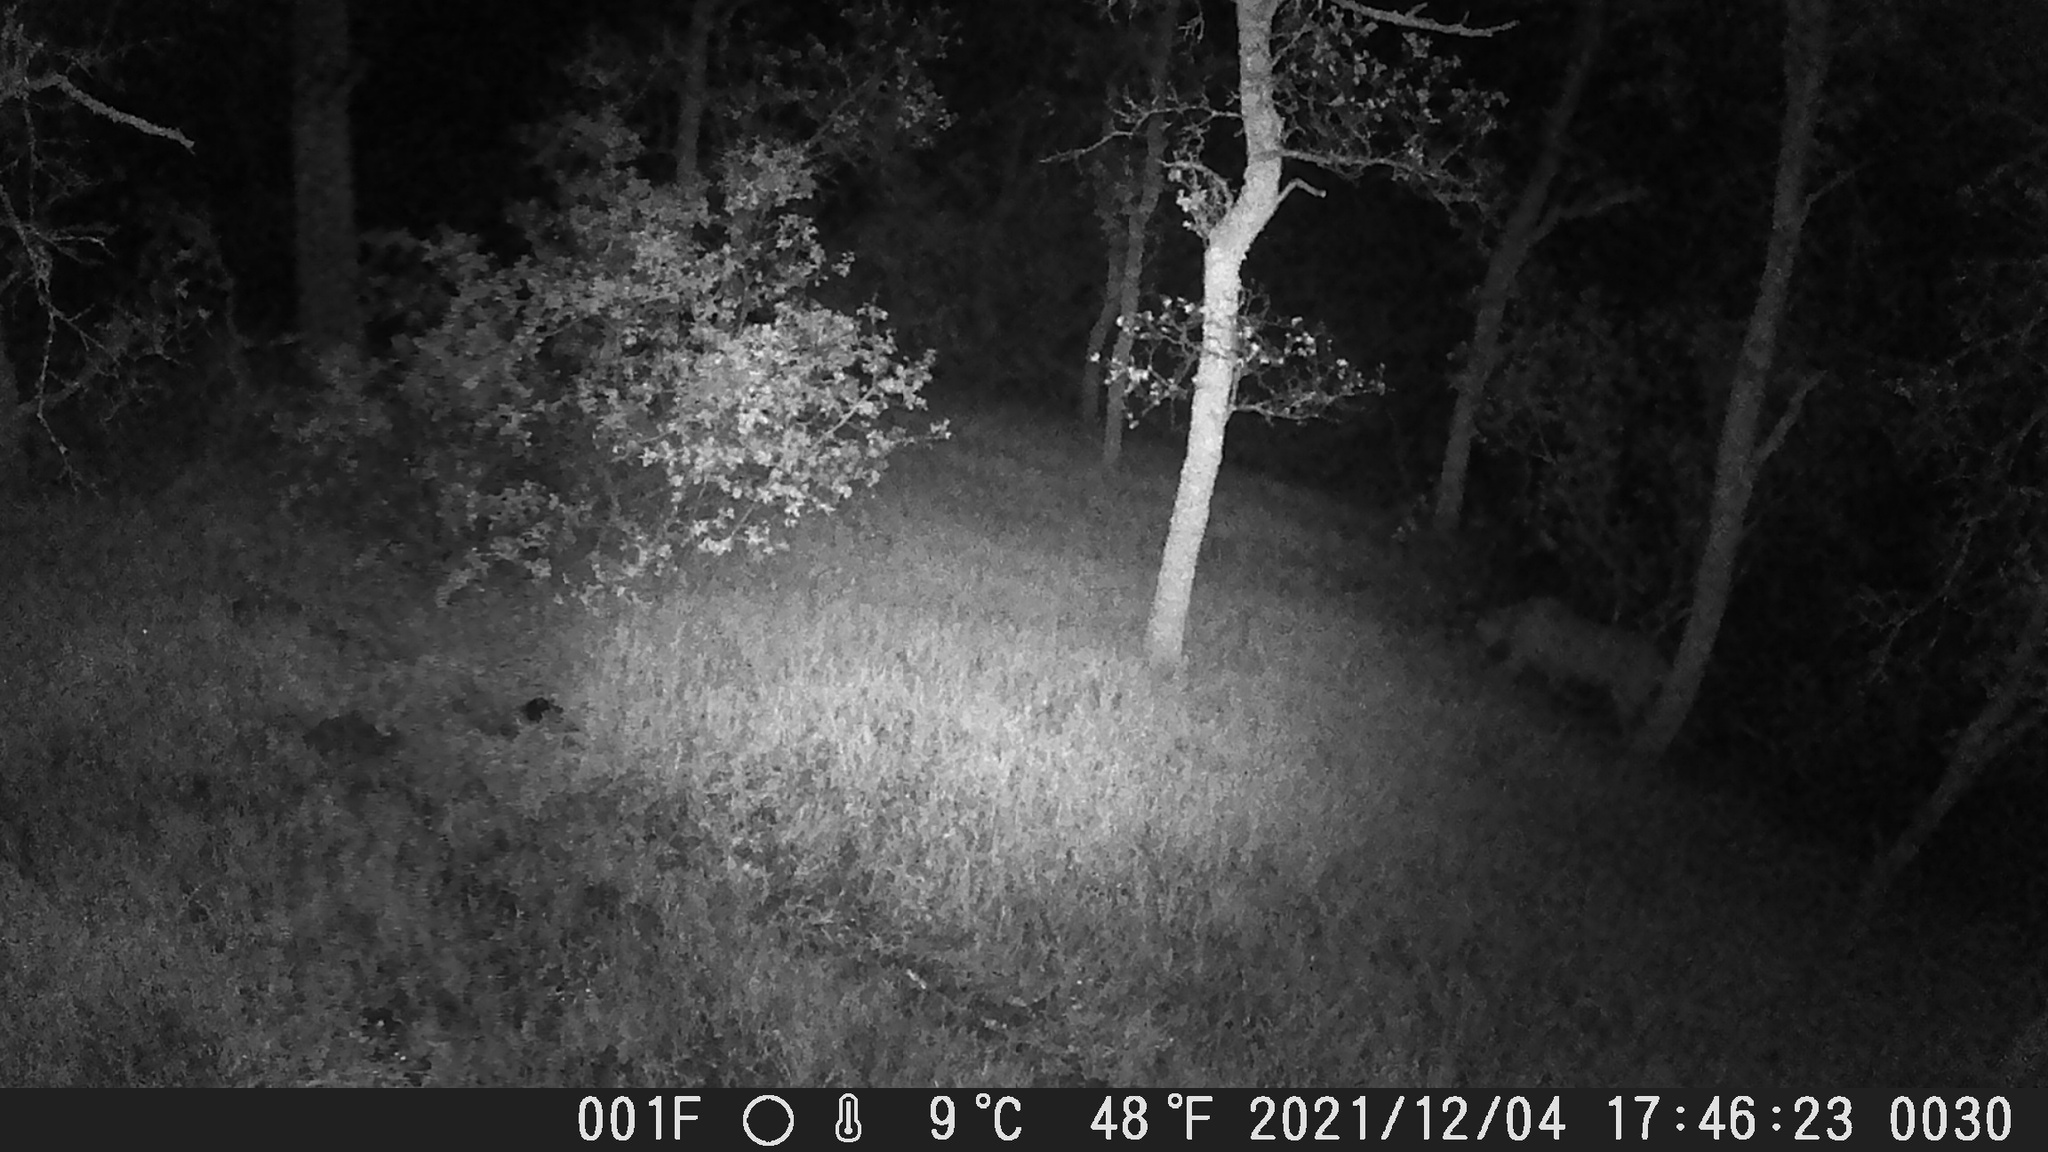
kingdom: Animalia
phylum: Chordata
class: Mammalia
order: Carnivora
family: Felidae
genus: Puma
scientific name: Puma concolor
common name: Puma
